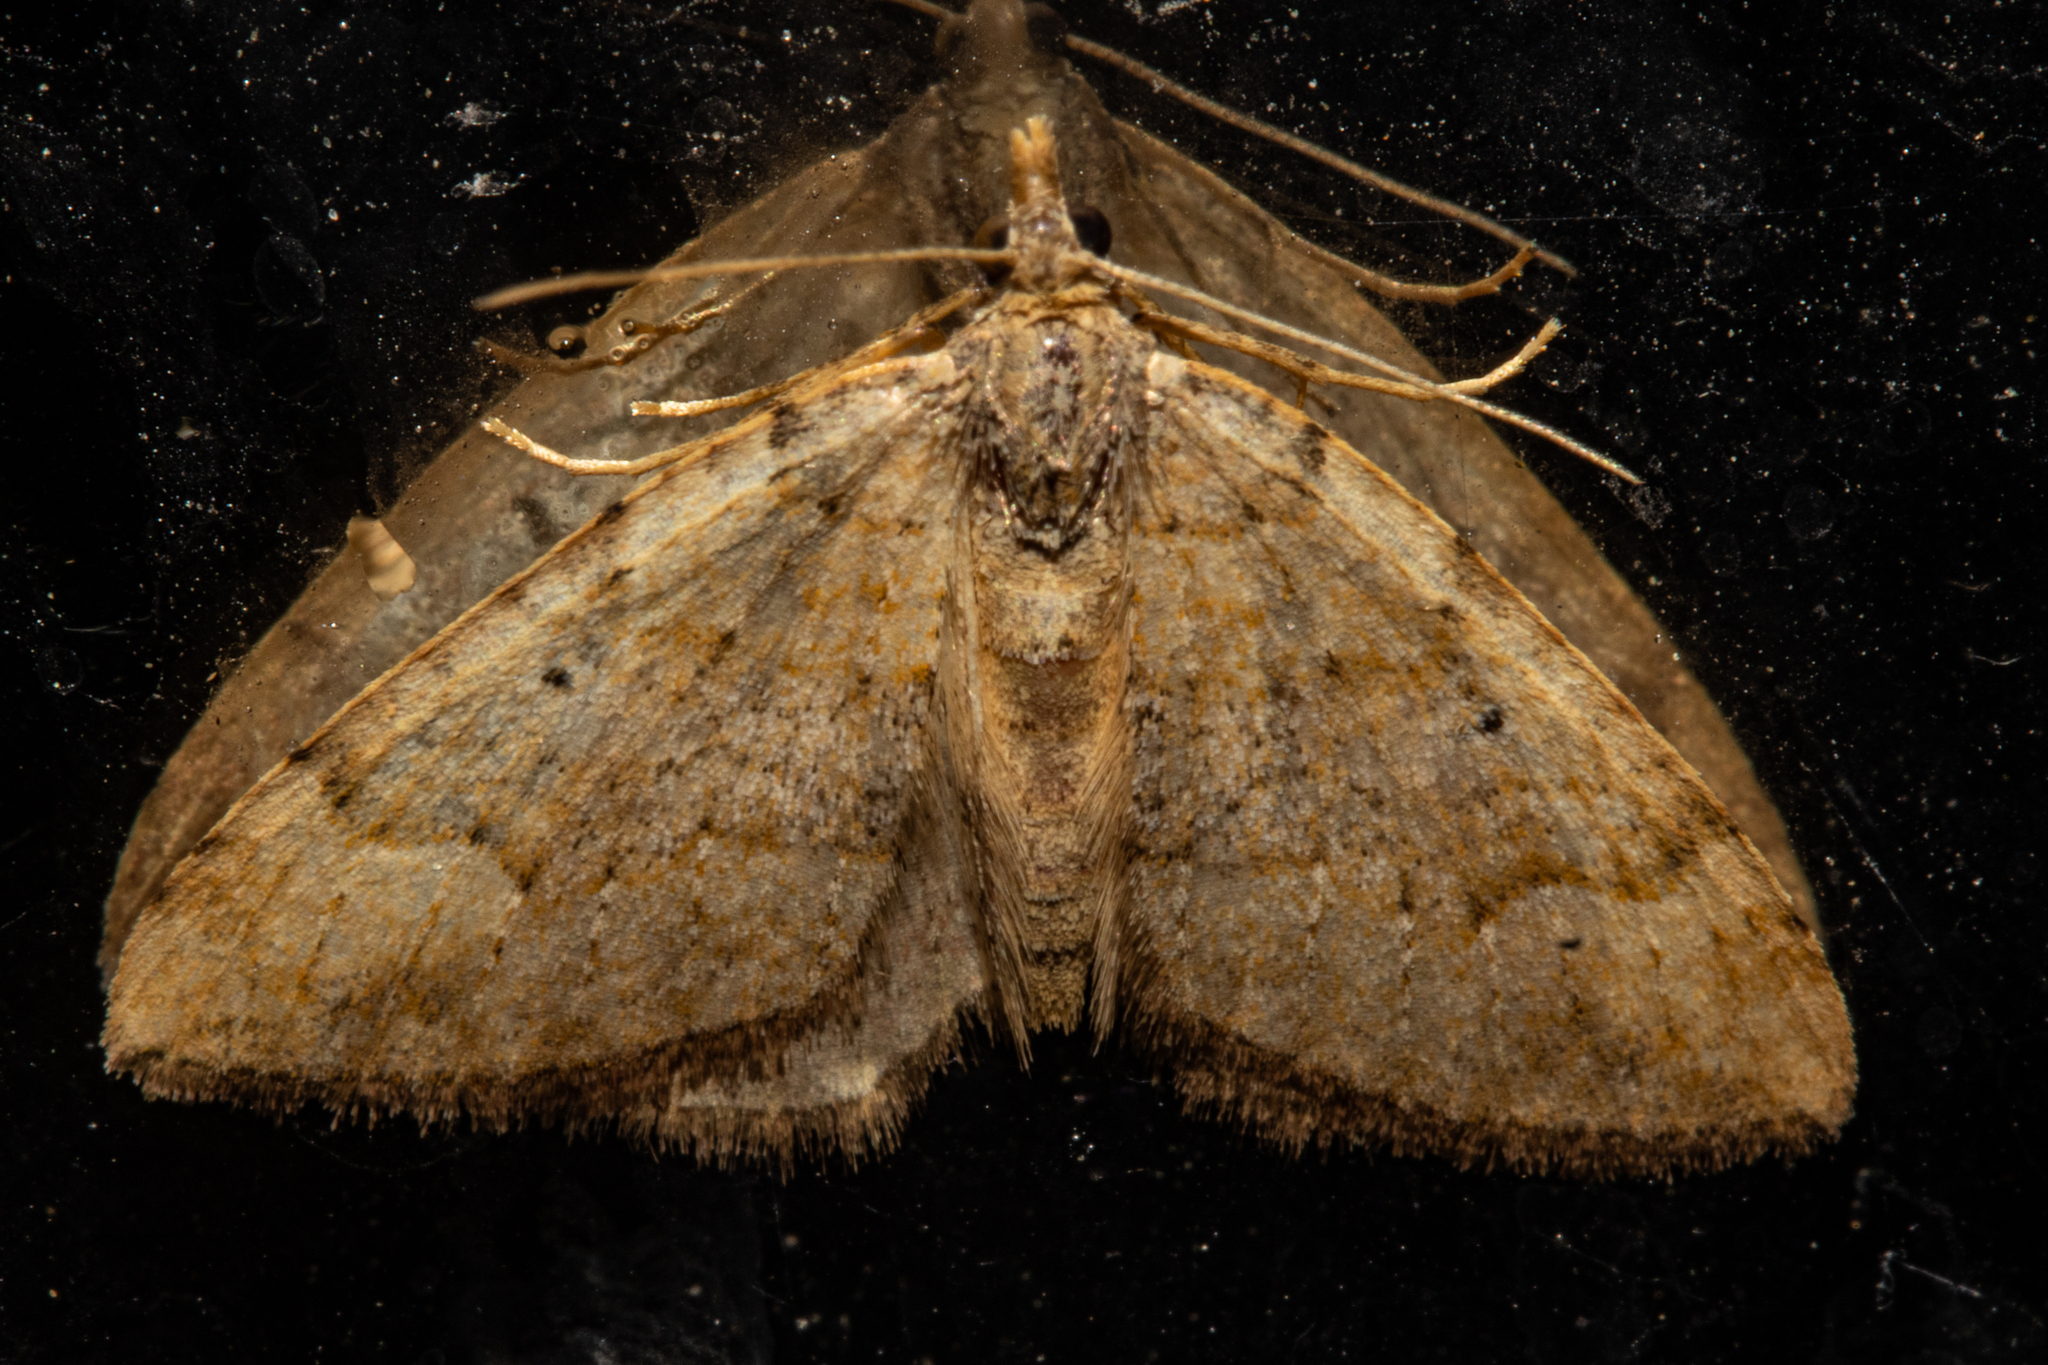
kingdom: Animalia
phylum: Arthropoda
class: Insecta
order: Lepidoptera
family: Geometridae
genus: Epyaxa
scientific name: Epyaxa rosearia
